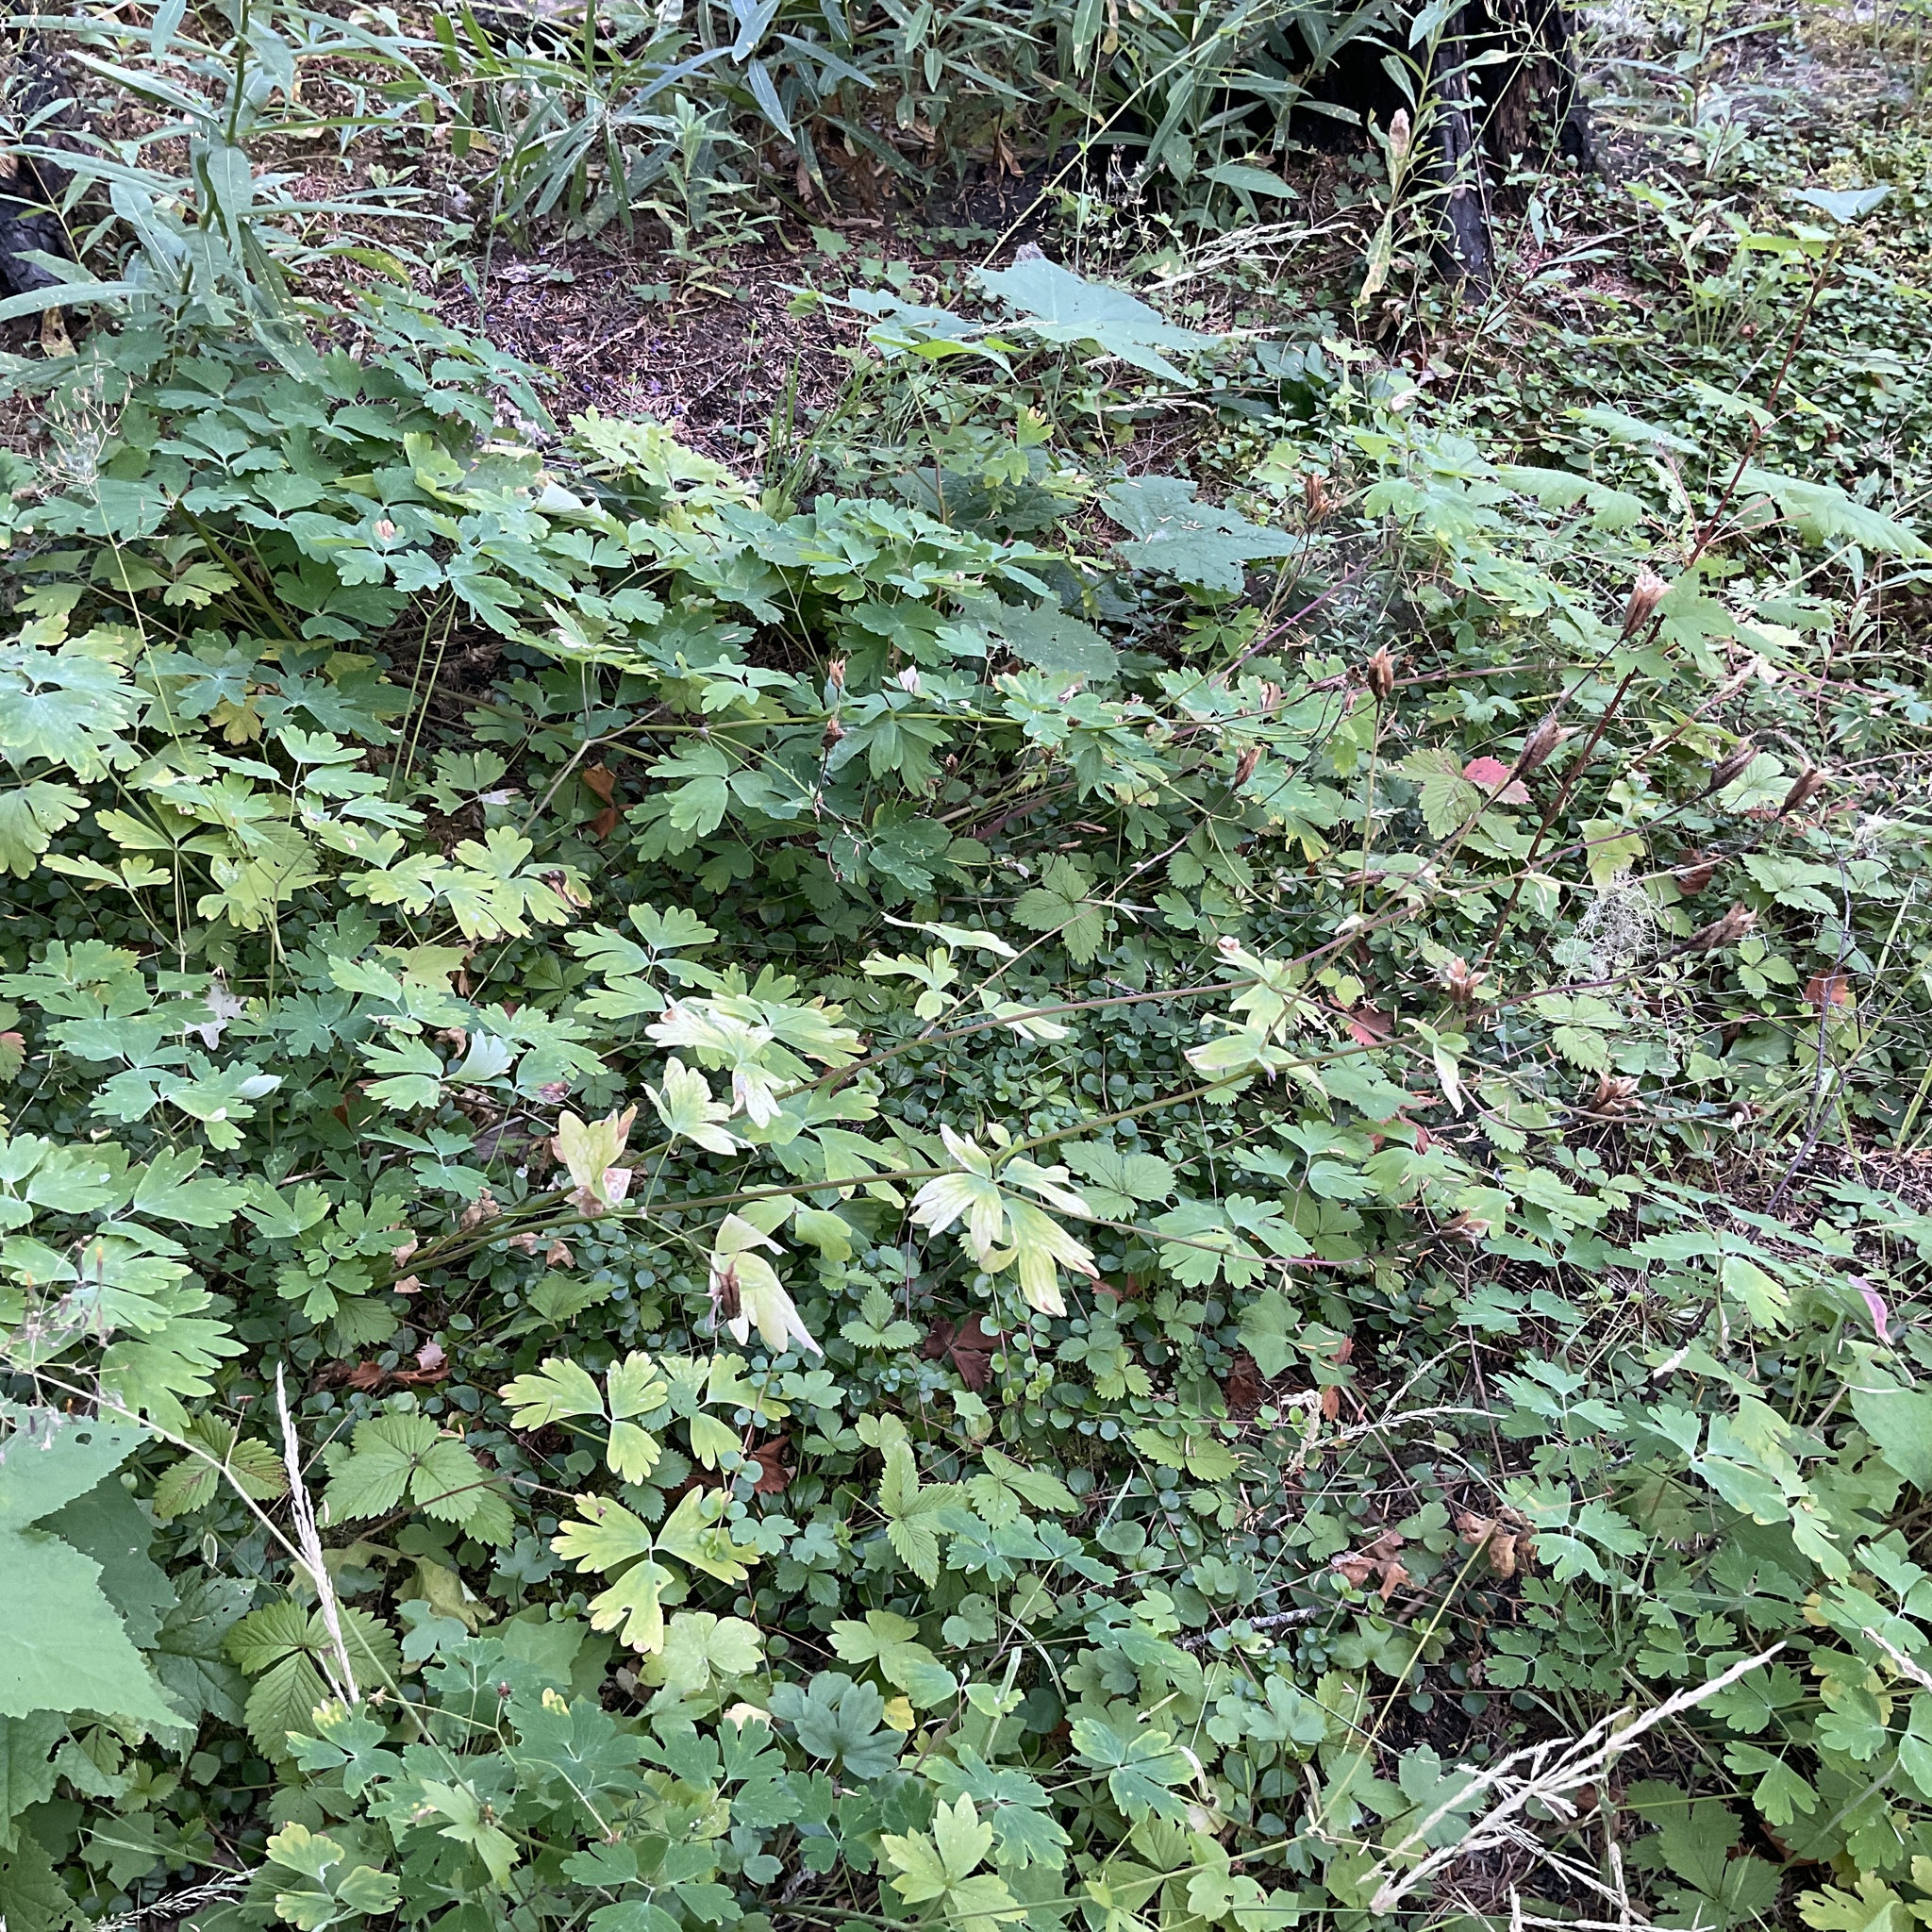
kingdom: Plantae
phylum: Tracheophyta
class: Magnoliopsida
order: Ranunculales
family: Ranunculaceae
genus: Aquilegia
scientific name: Aquilegia formosa
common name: Sitka columbine
